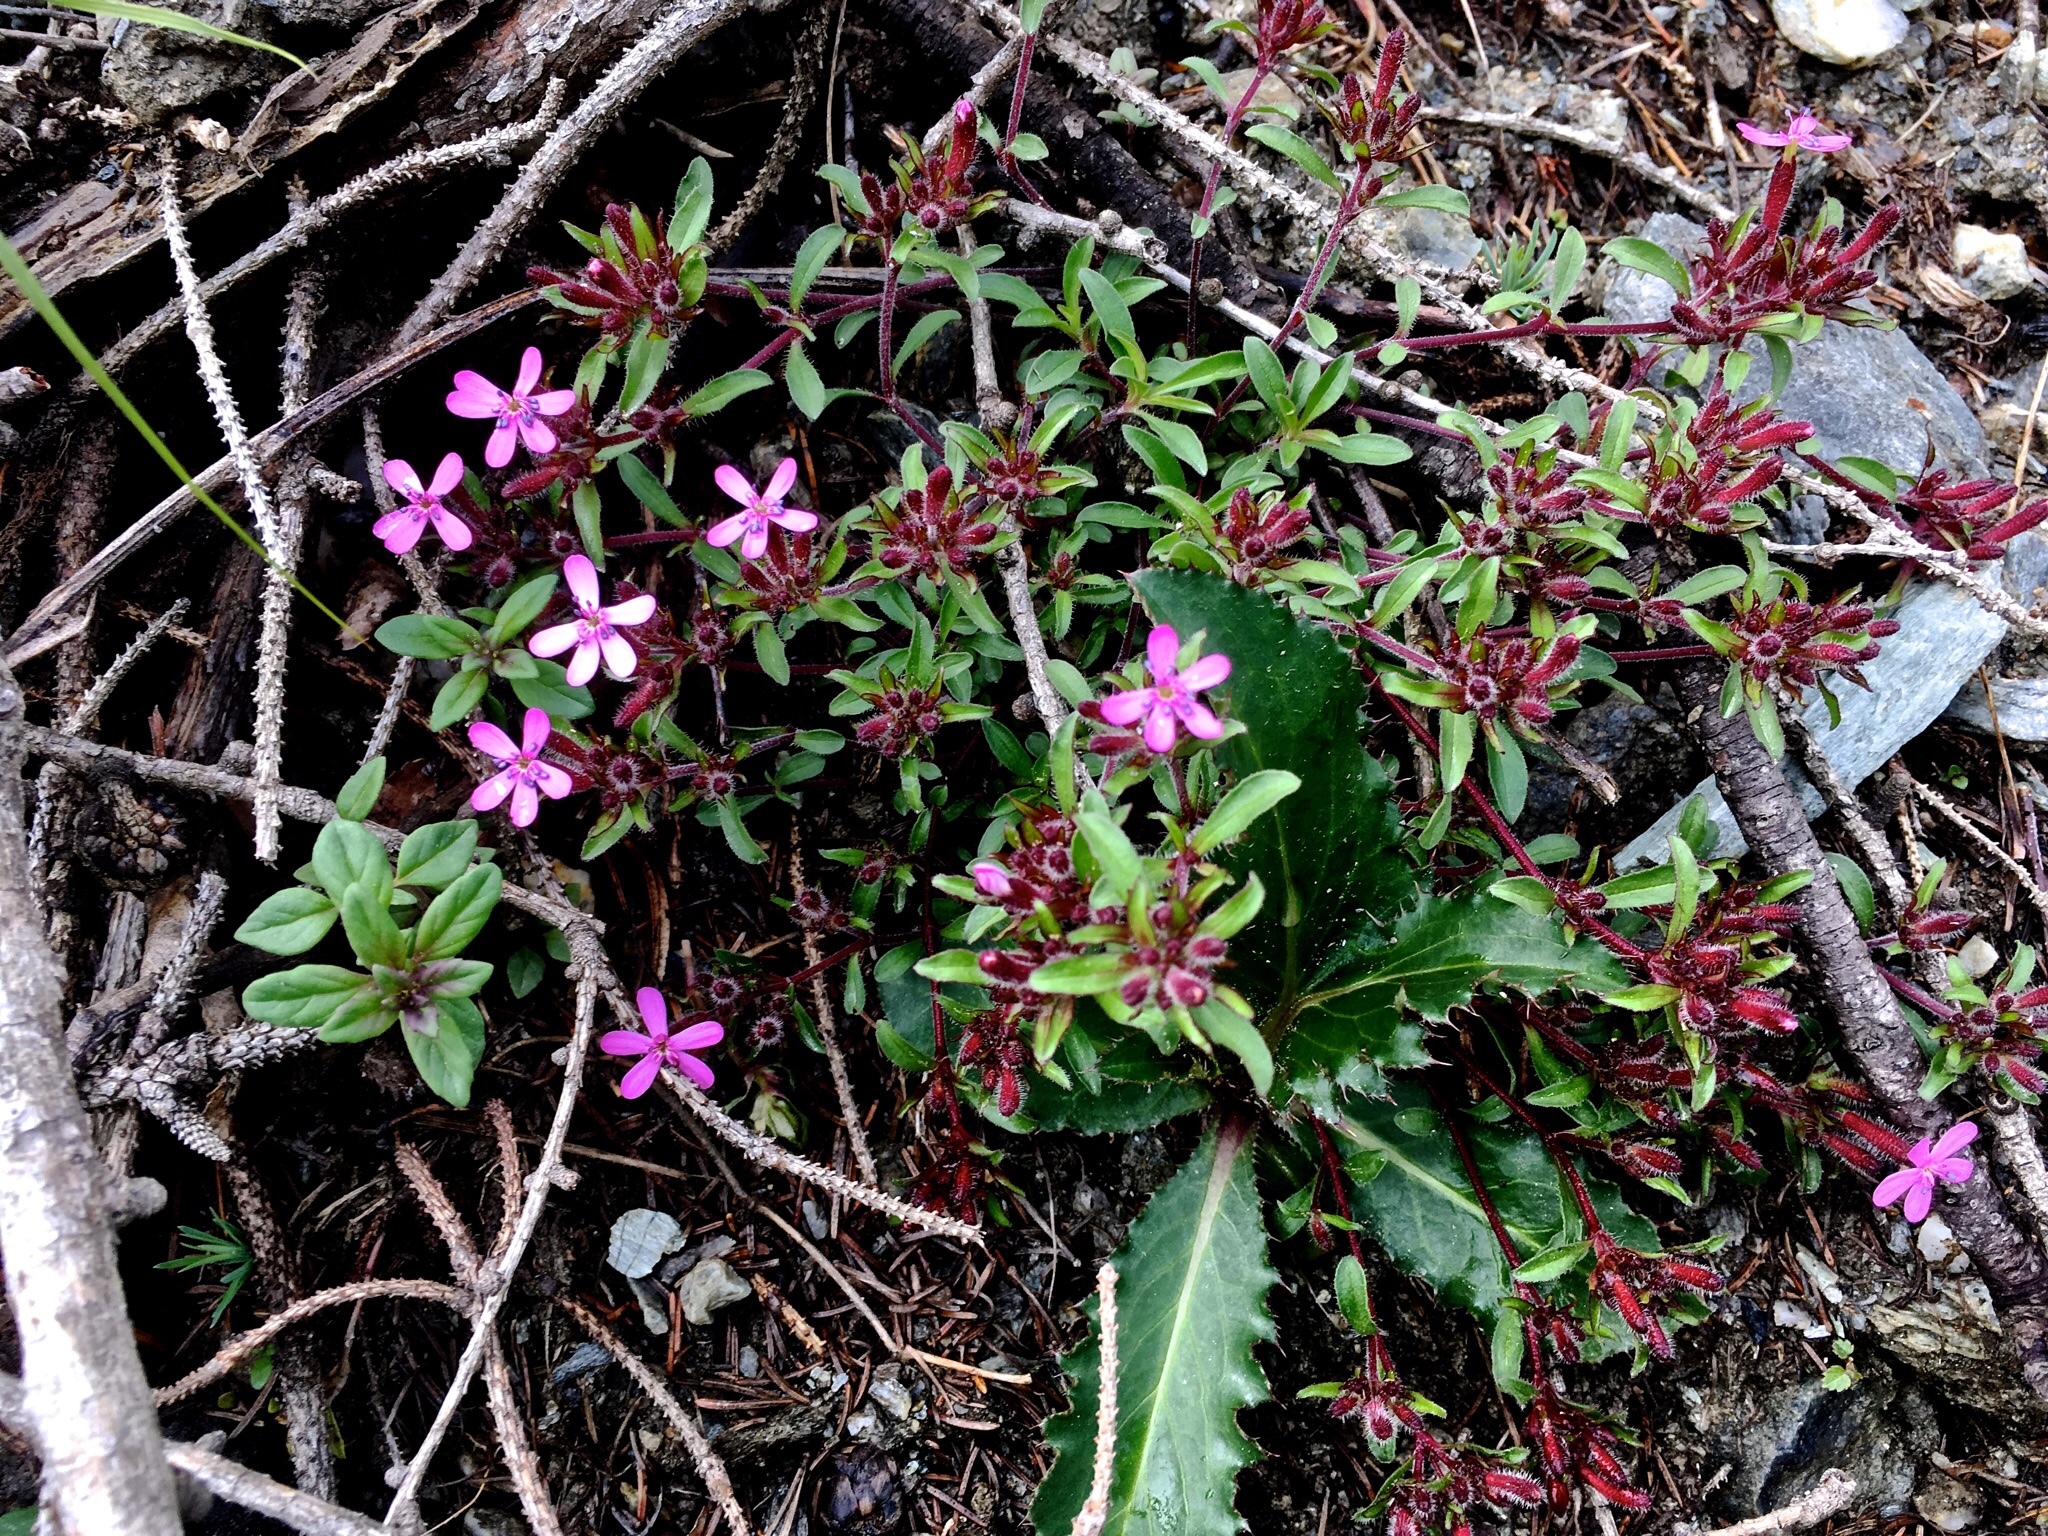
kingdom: Plantae
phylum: Tracheophyta
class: Magnoliopsida
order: Caryophyllales
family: Caryophyllaceae
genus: Saponaria
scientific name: Saponaria ocymoides
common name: Rock soapwort
